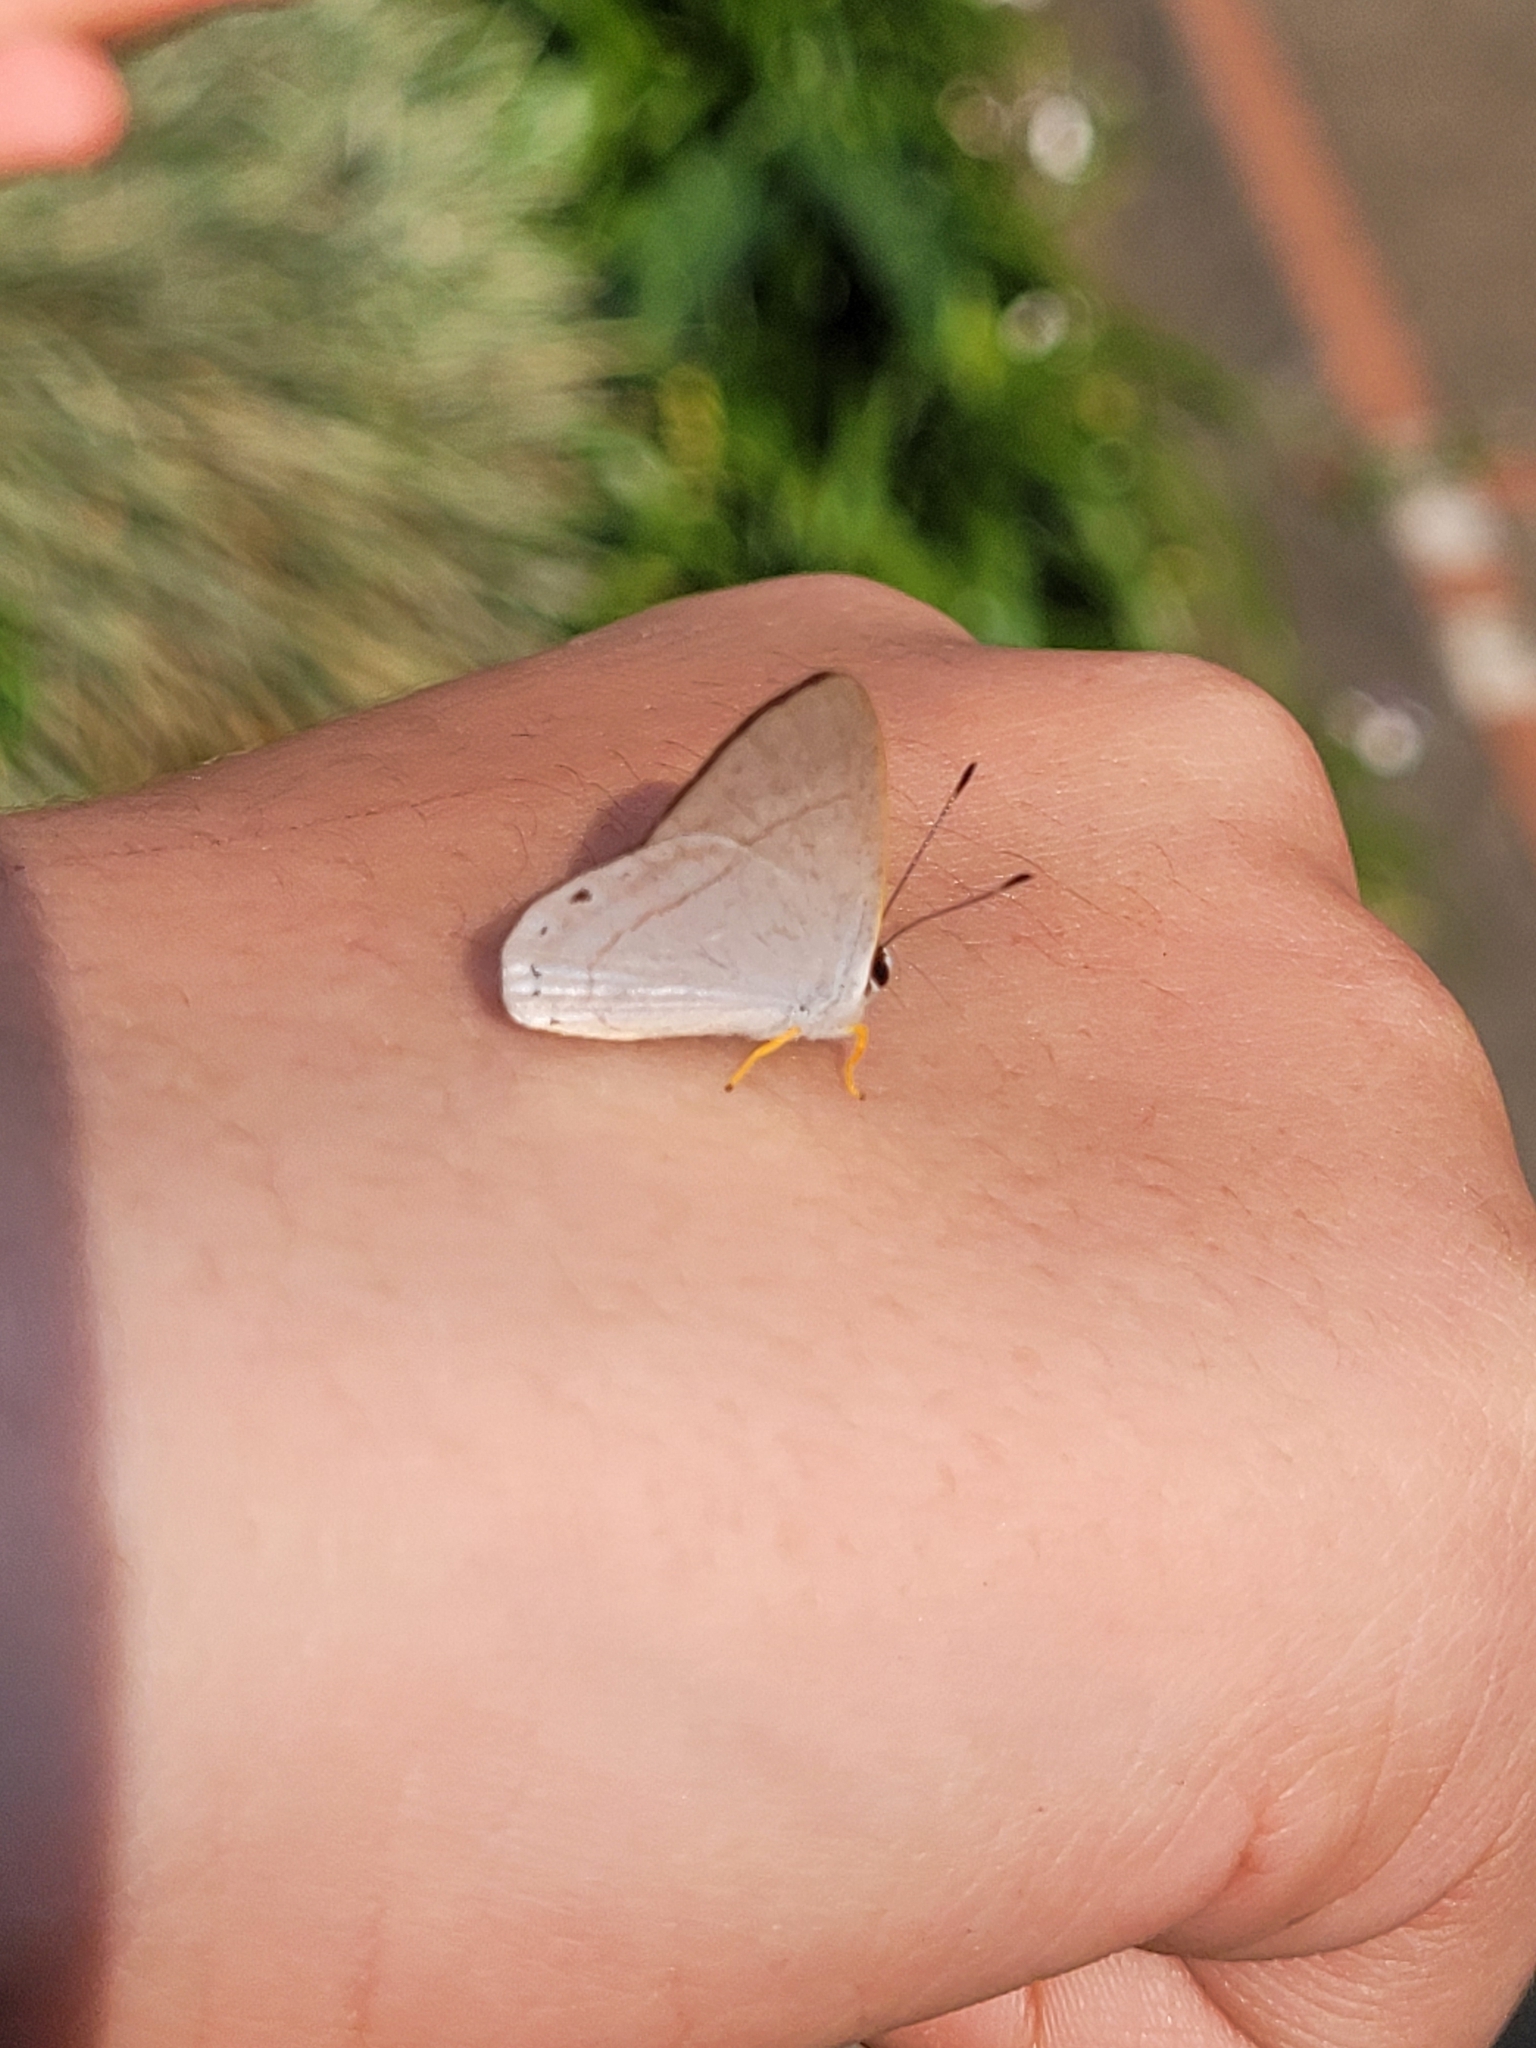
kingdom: Animalia
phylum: Arthropoda
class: Insecta
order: Lepidoptera
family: Lycaenidae
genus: Euselasia
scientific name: Euselasia eupatra
